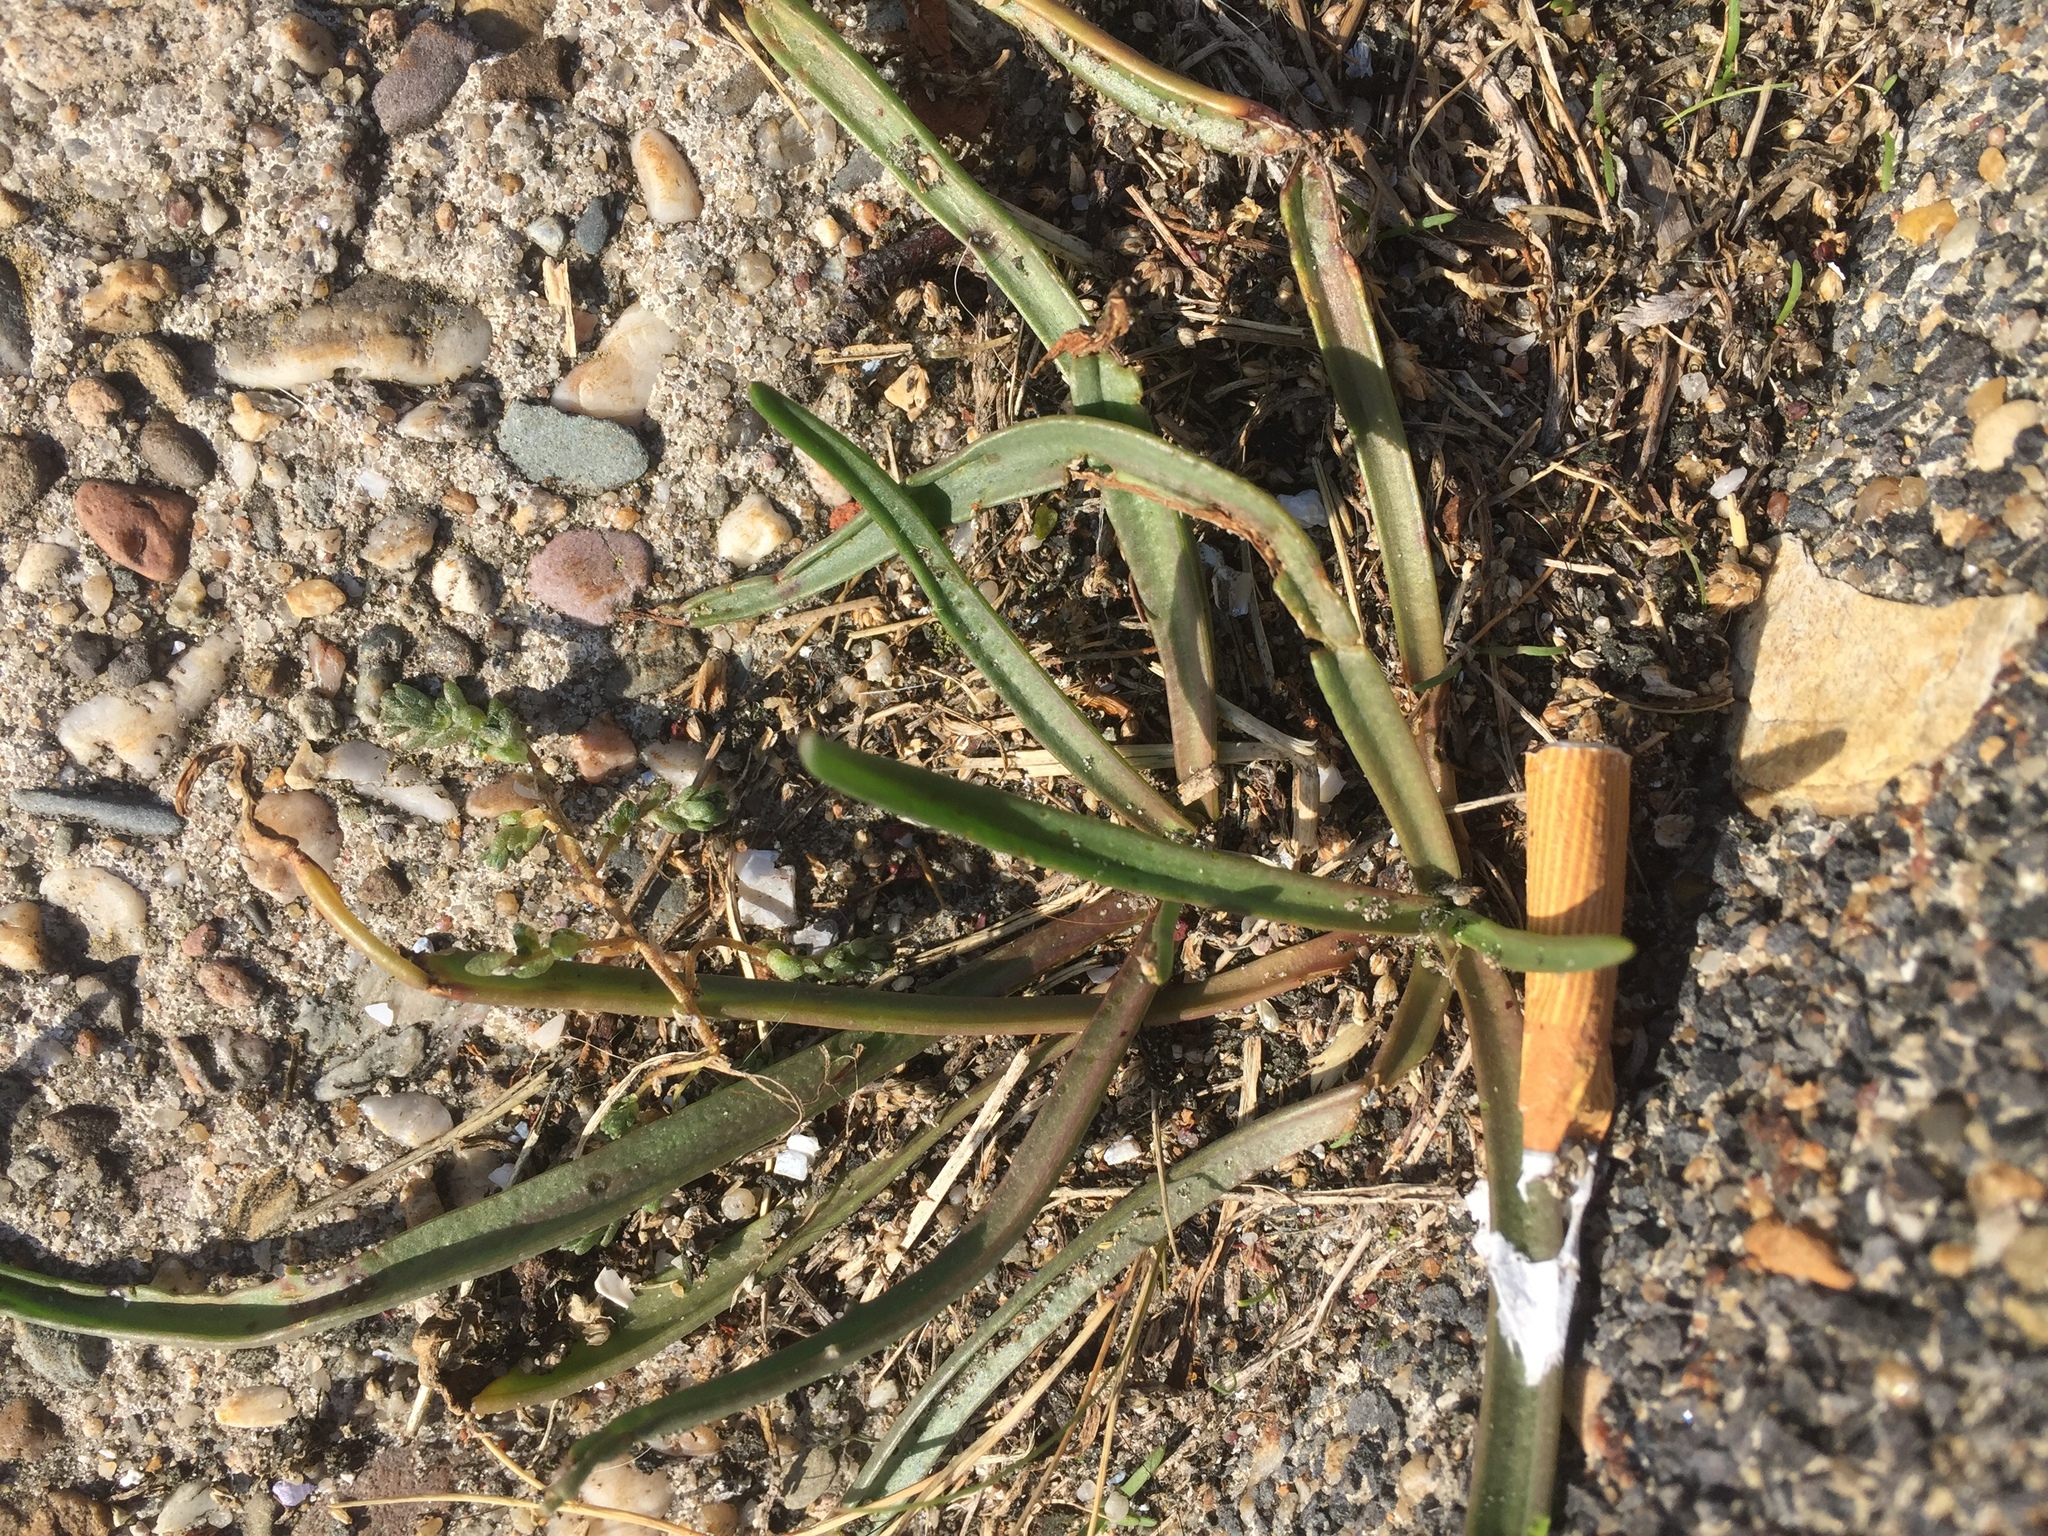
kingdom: Plantae
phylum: Tracheophyta
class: Magnoliopsida
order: Lamiales
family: Plantaginaceae
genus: Plantago
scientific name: Plantago maritima
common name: Sea plantain
